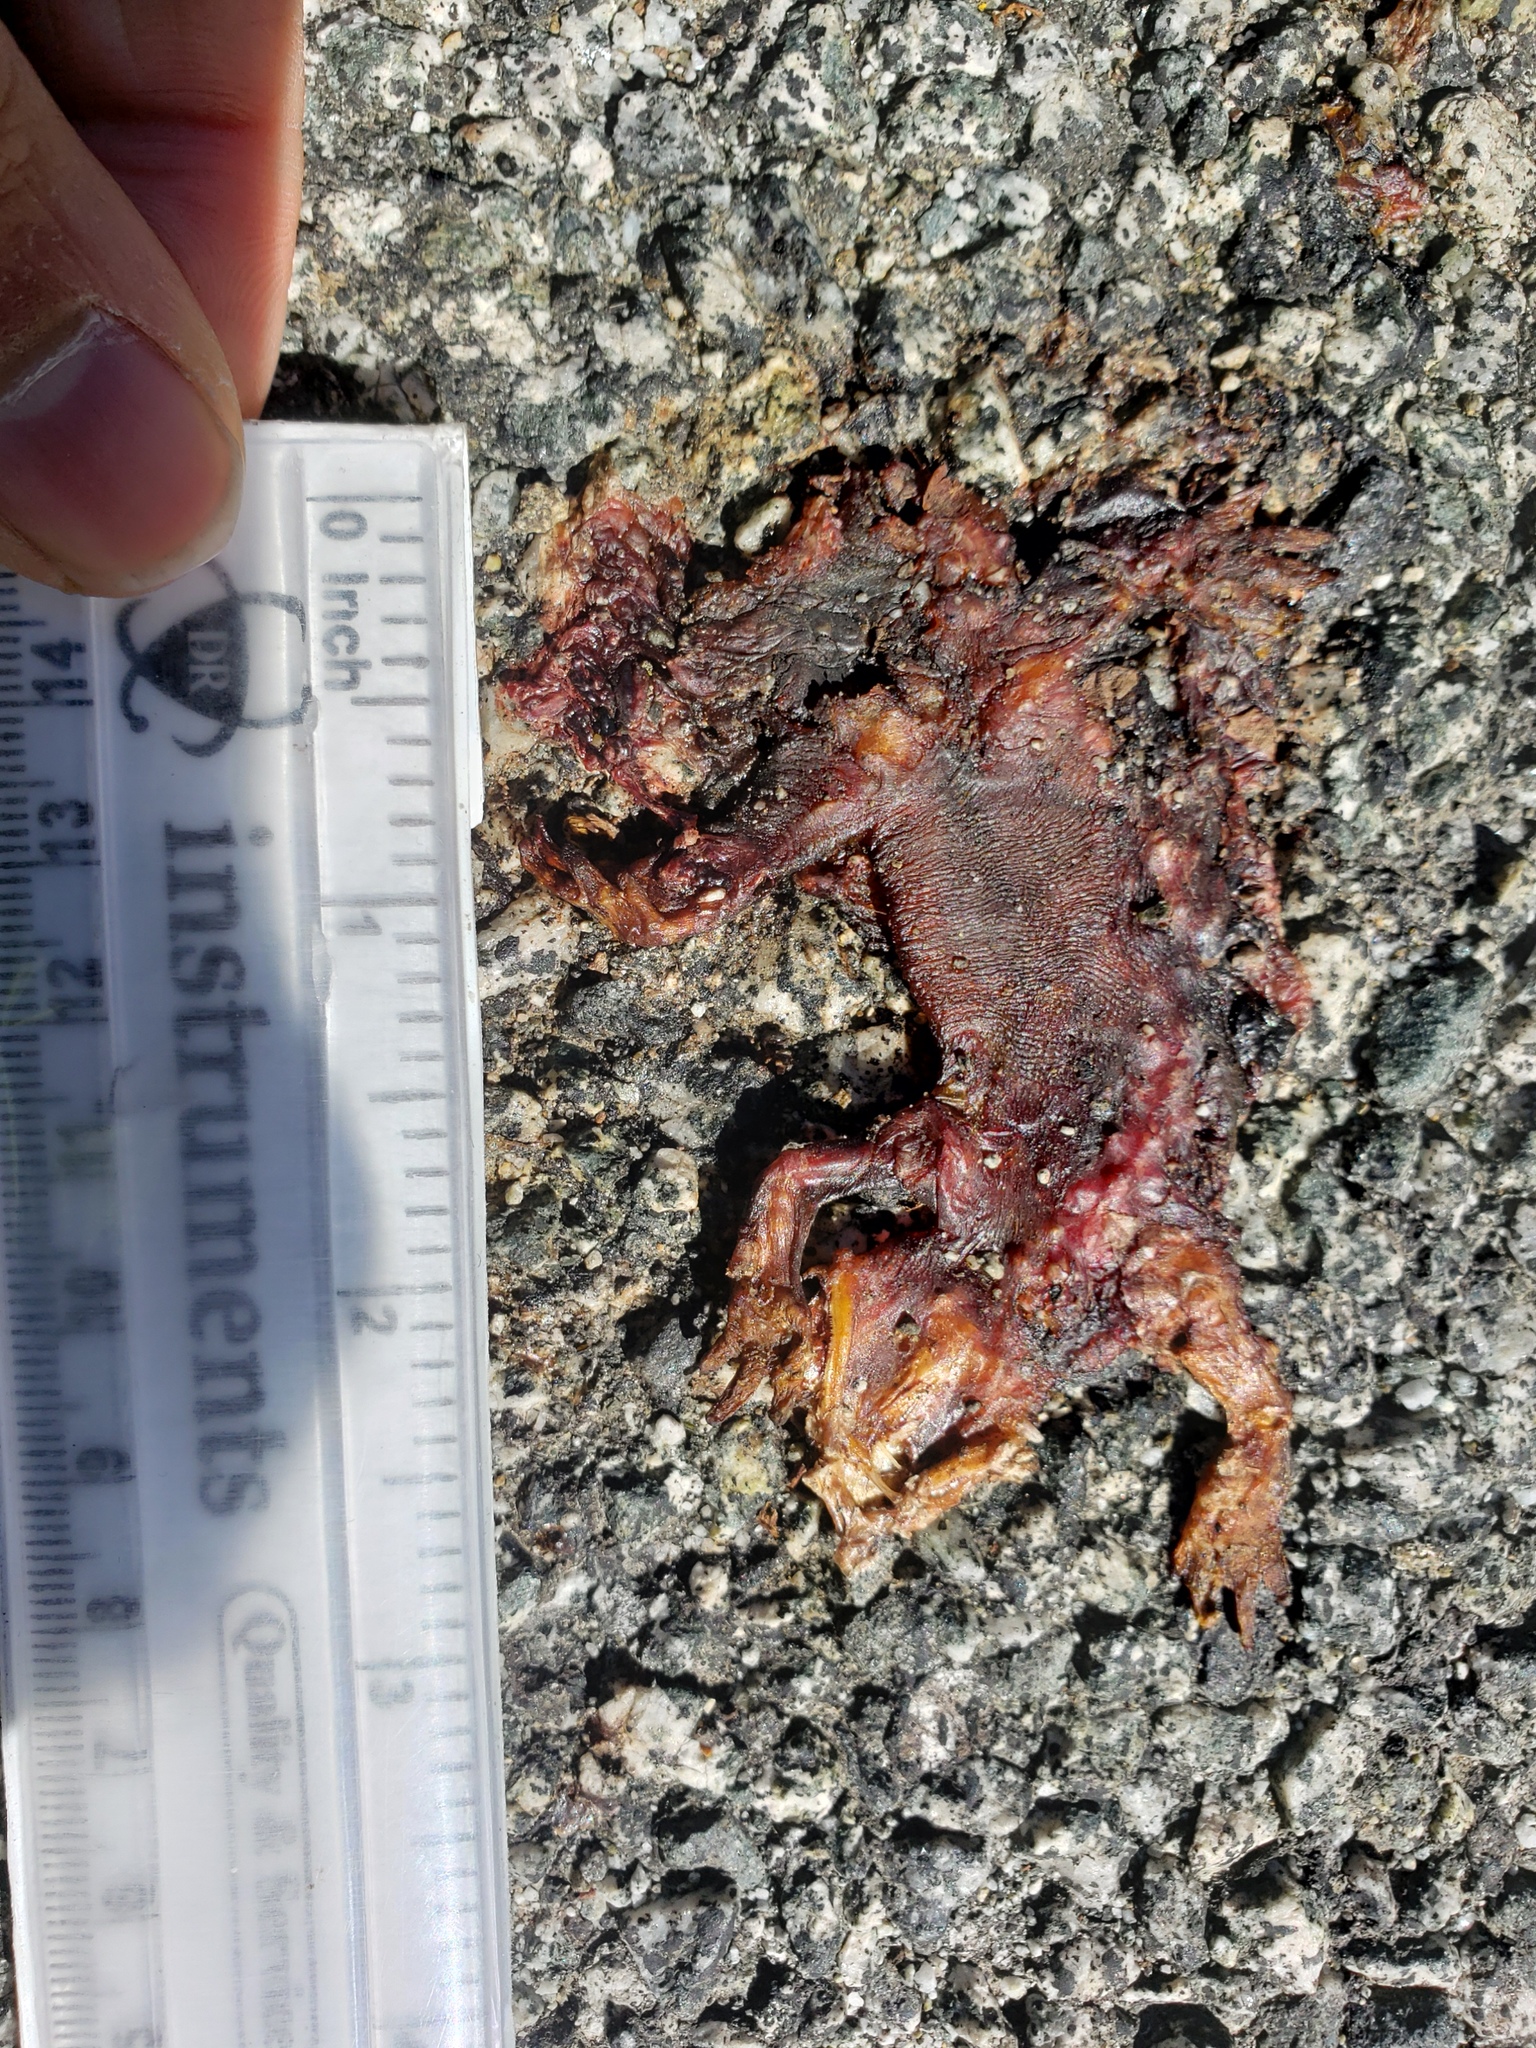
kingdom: Animalia
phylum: Chordata
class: Amphibia
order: Caudata
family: Salamandridae
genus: Taricha
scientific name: Taricha
